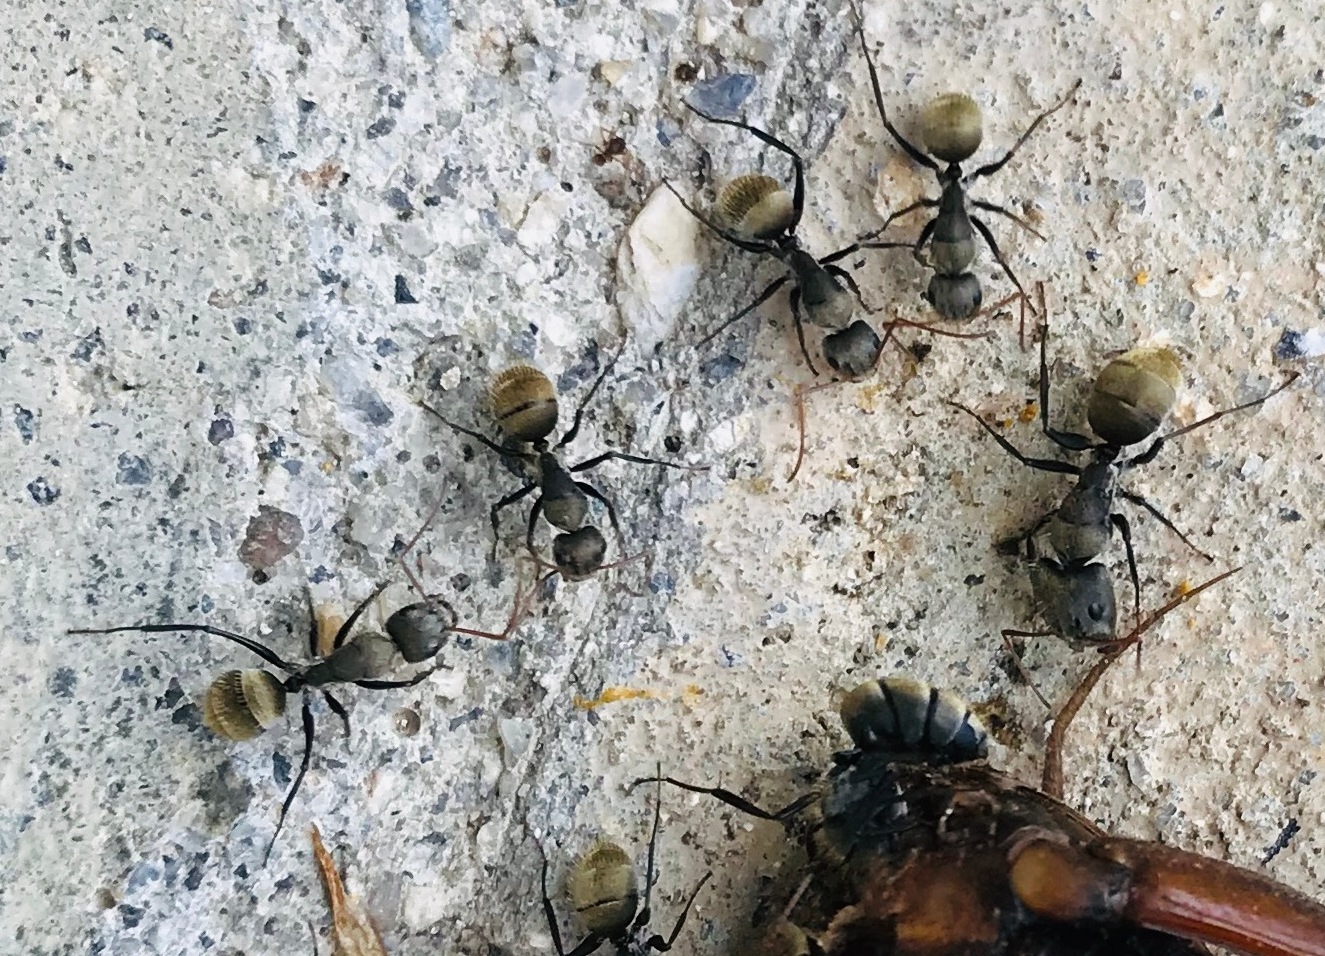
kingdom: Animalia
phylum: Arthropoda
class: Insecta
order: Hymenoptera
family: Formicidae
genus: Camponotus
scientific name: Camponotus mus
